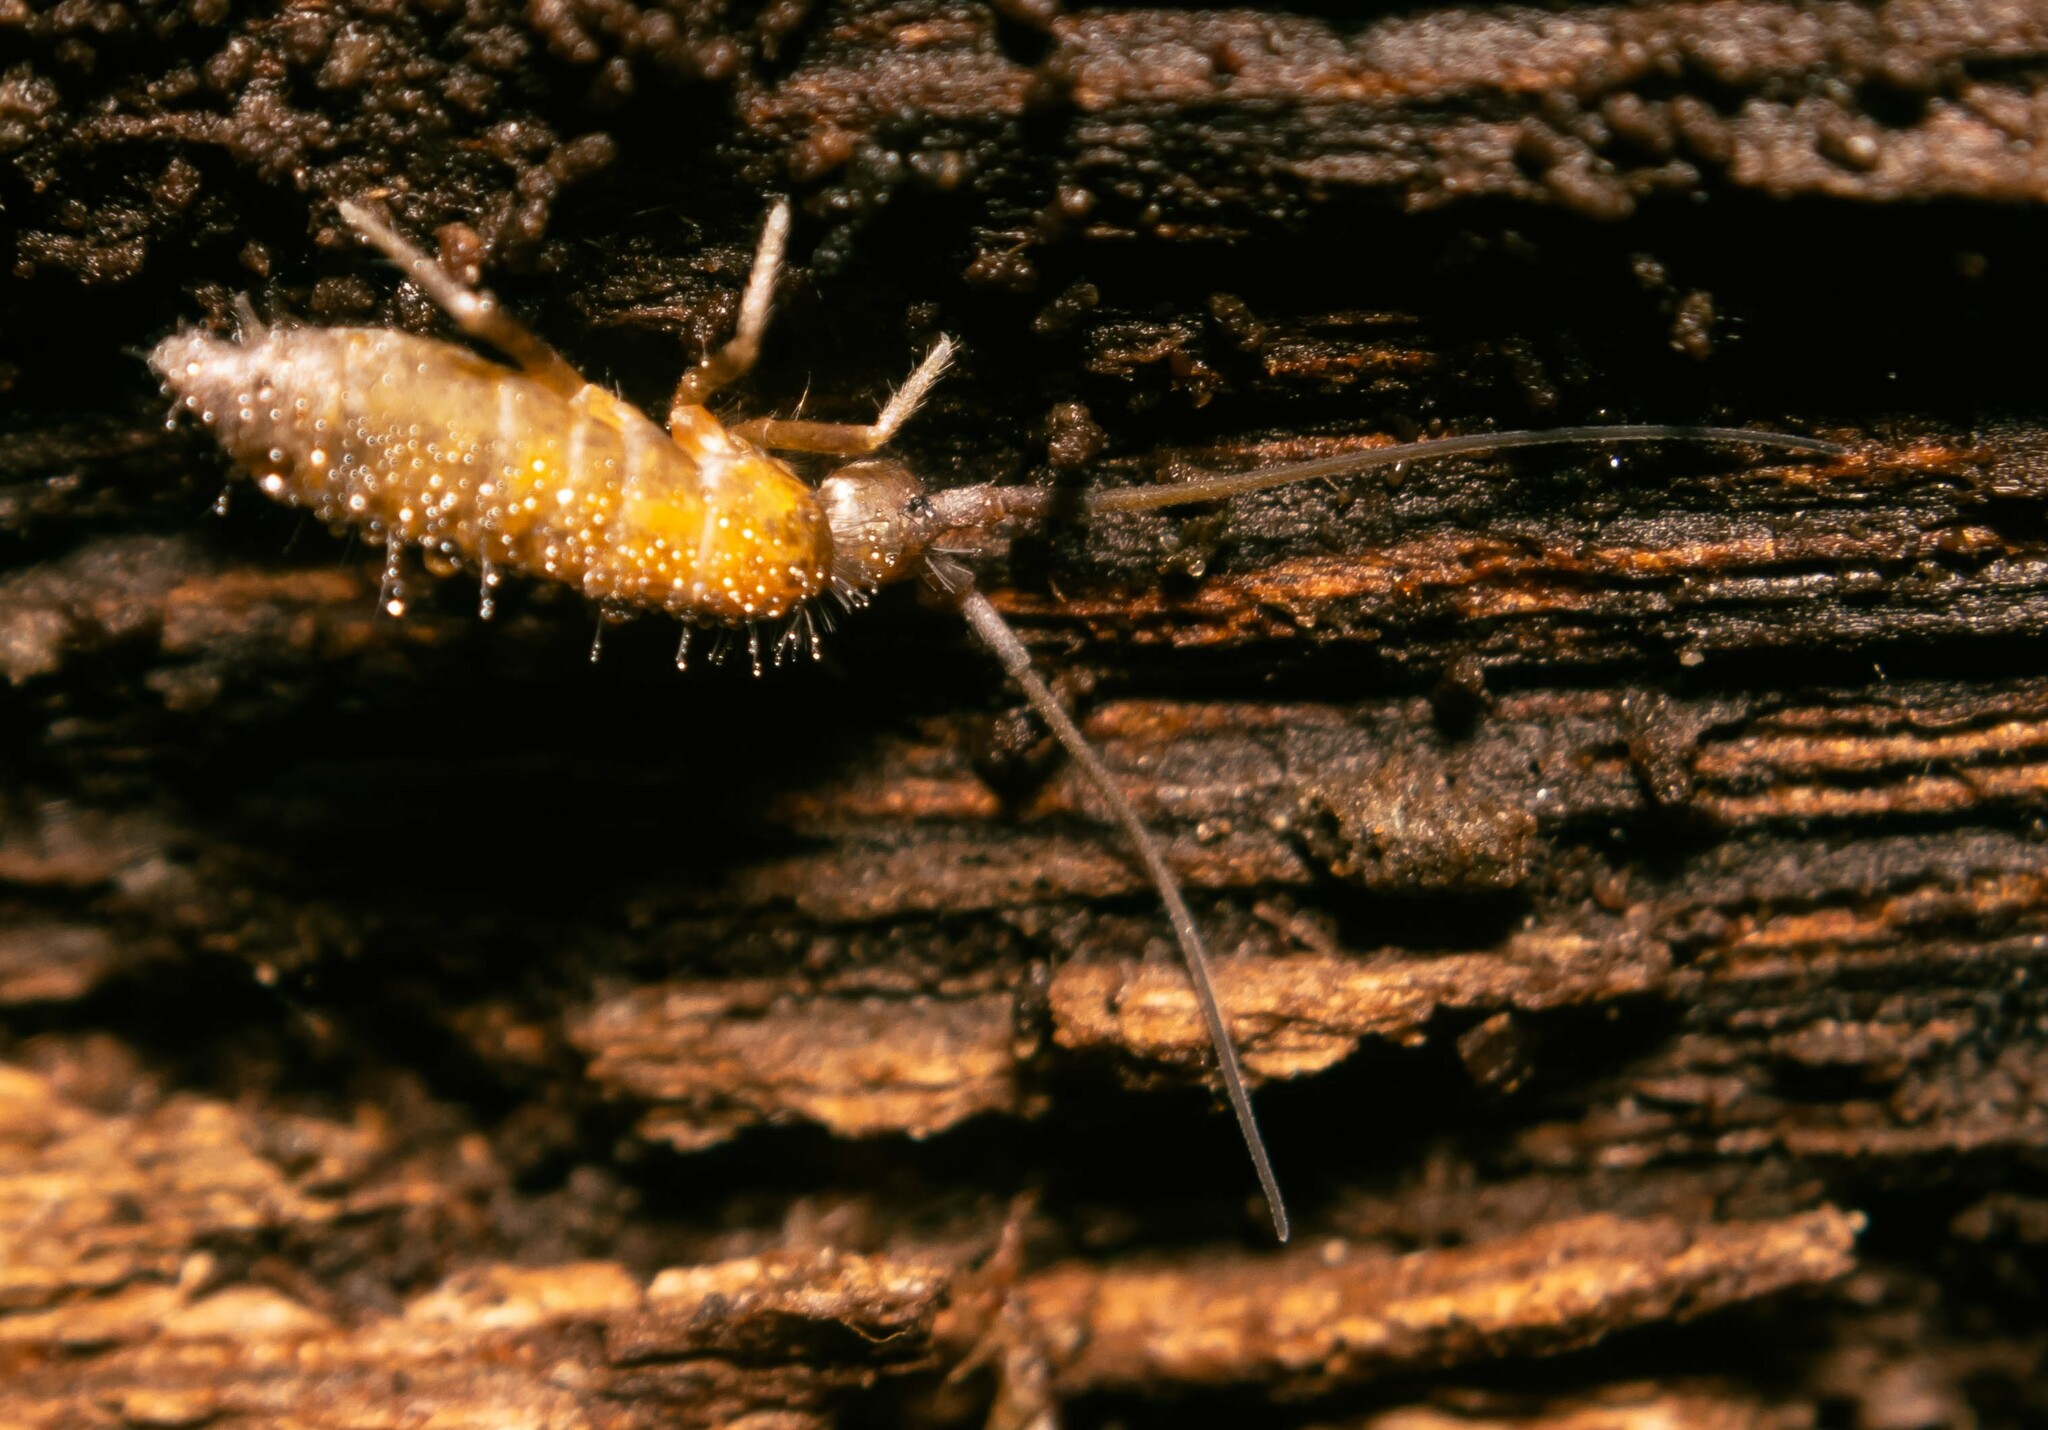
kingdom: Animalia
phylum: Arthropoda
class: Collembola
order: Entomobryomorpha
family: Tomoceridae
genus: Pogonognathellus
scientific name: Pogonognathellus longicornis
